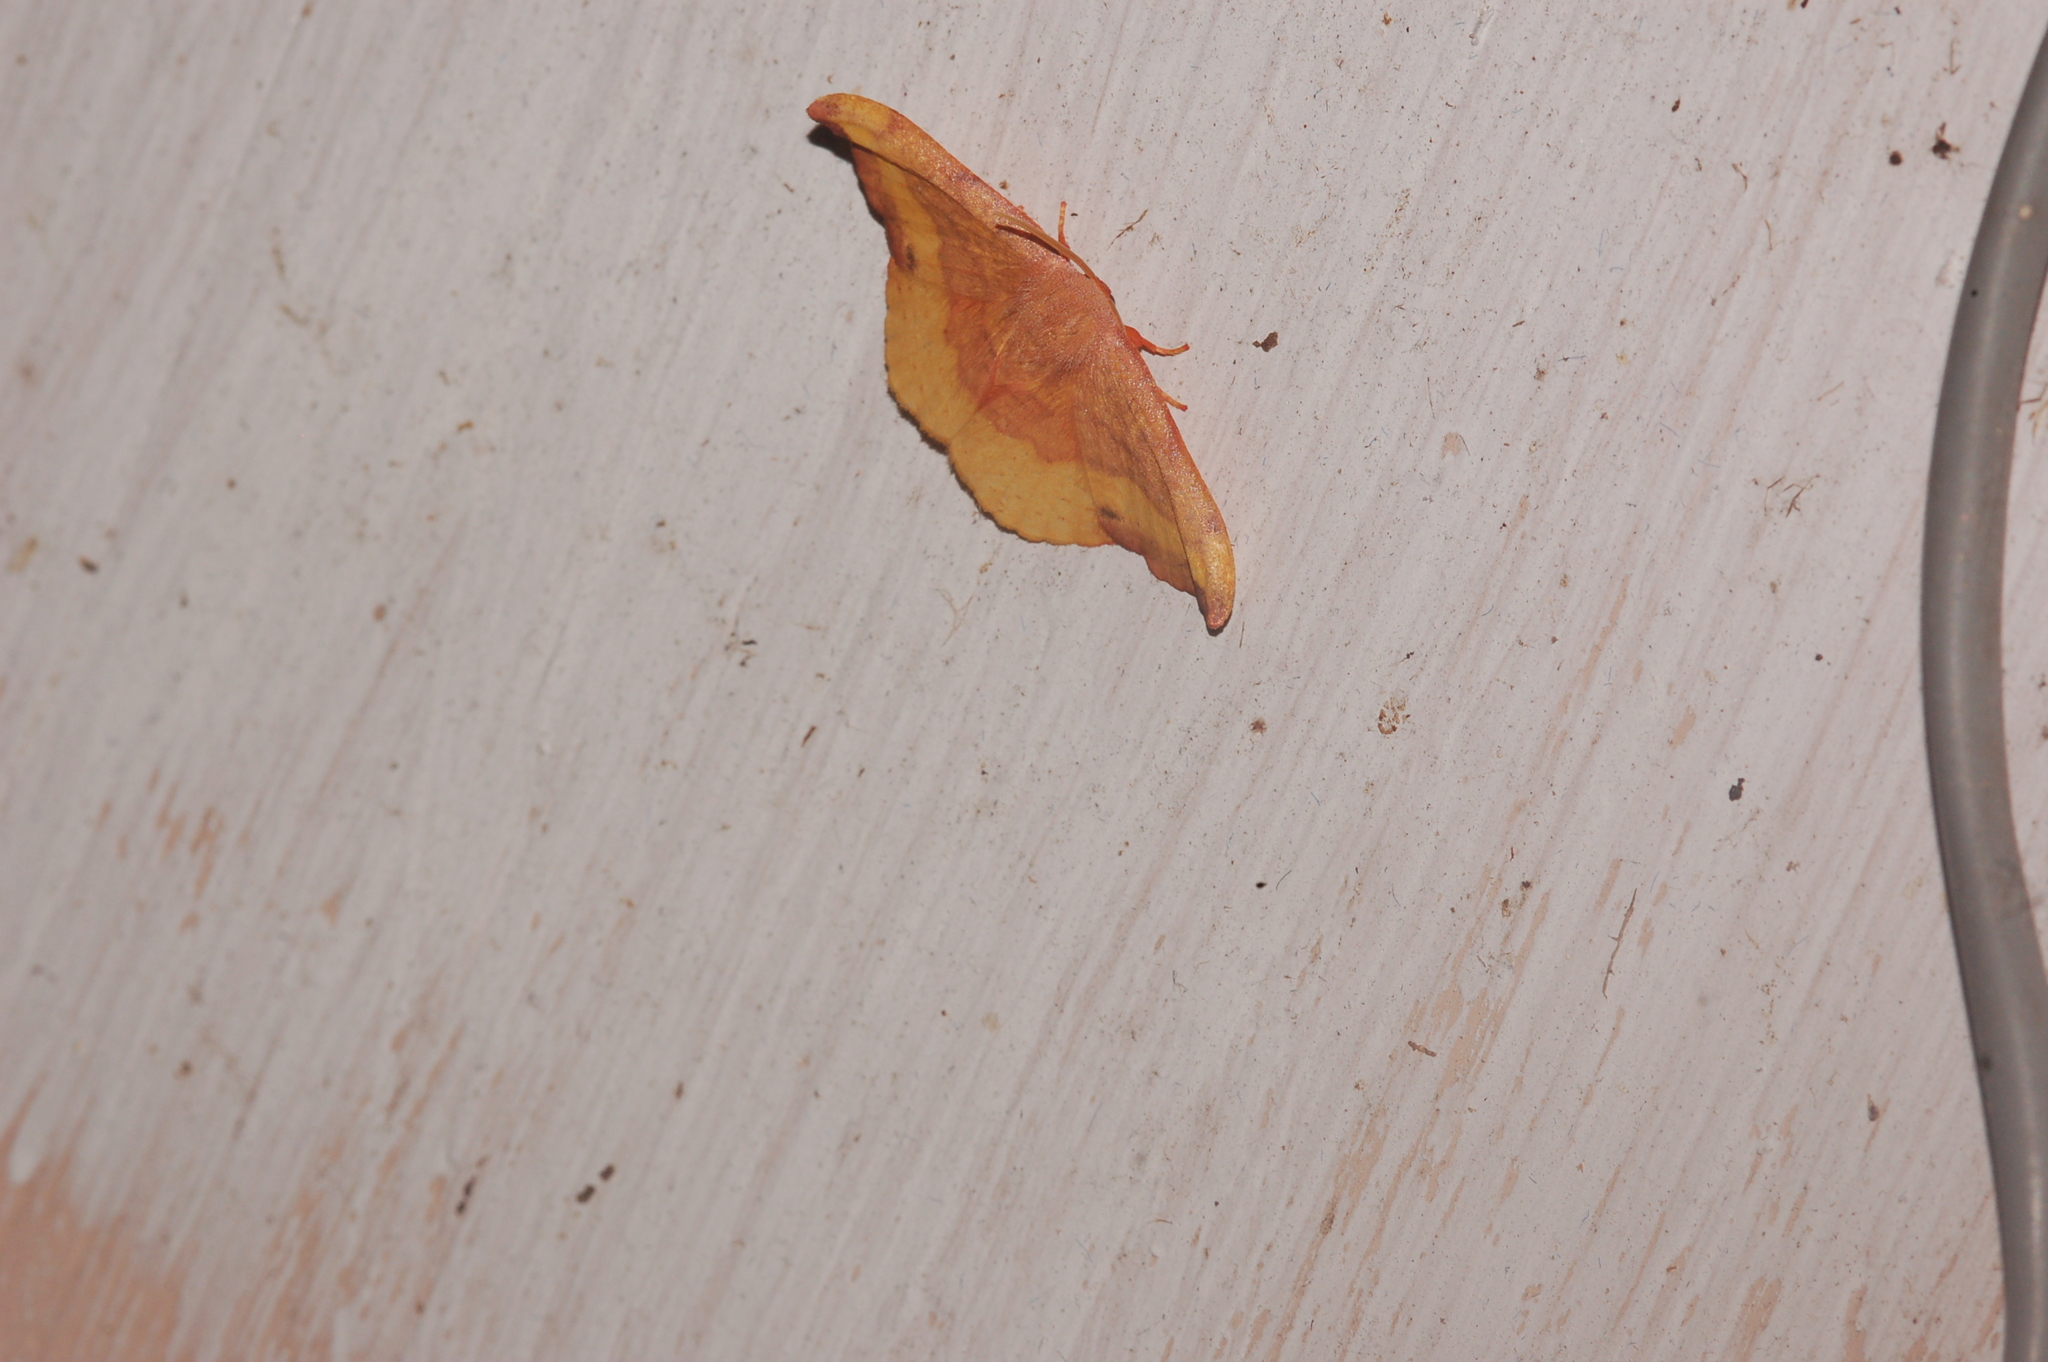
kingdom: Animalia
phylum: Arthropoda
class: Insecta
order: Lepidoptera
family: Drepanidae
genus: Oreta
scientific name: Oreta rosea
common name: Rose hooktip
